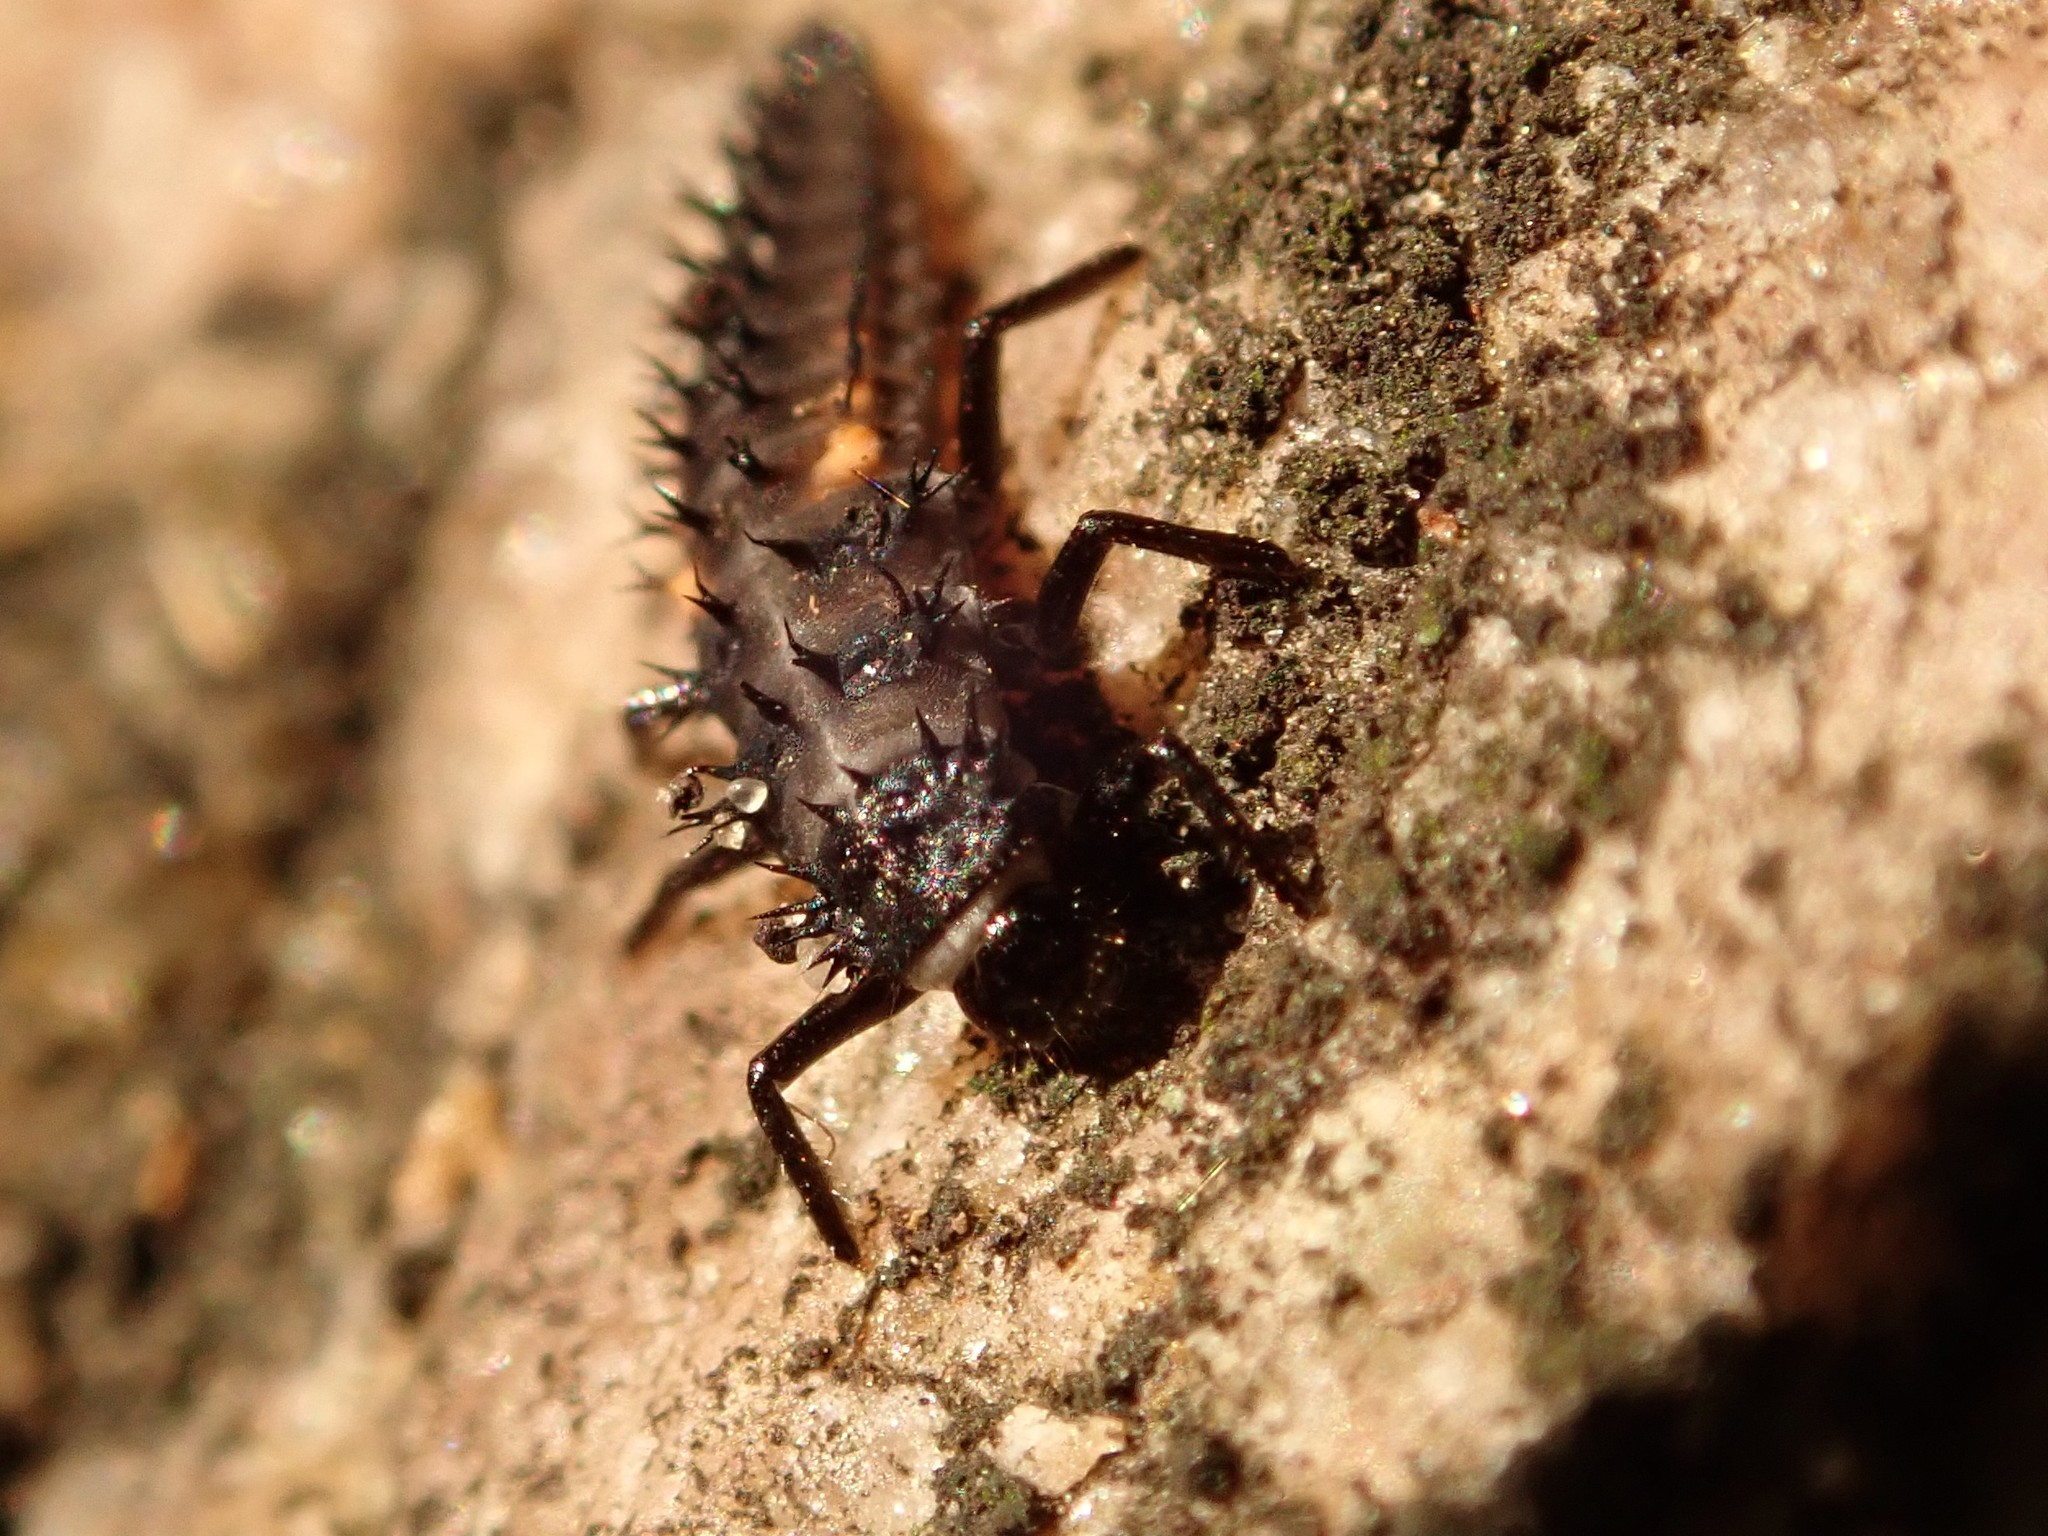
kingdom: Animalia
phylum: Arthropoda
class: Insecta
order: Coleoptera
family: Coccinellidae
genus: Harmonia
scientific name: Harmonia axyridis
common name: Harlequin ladybird
